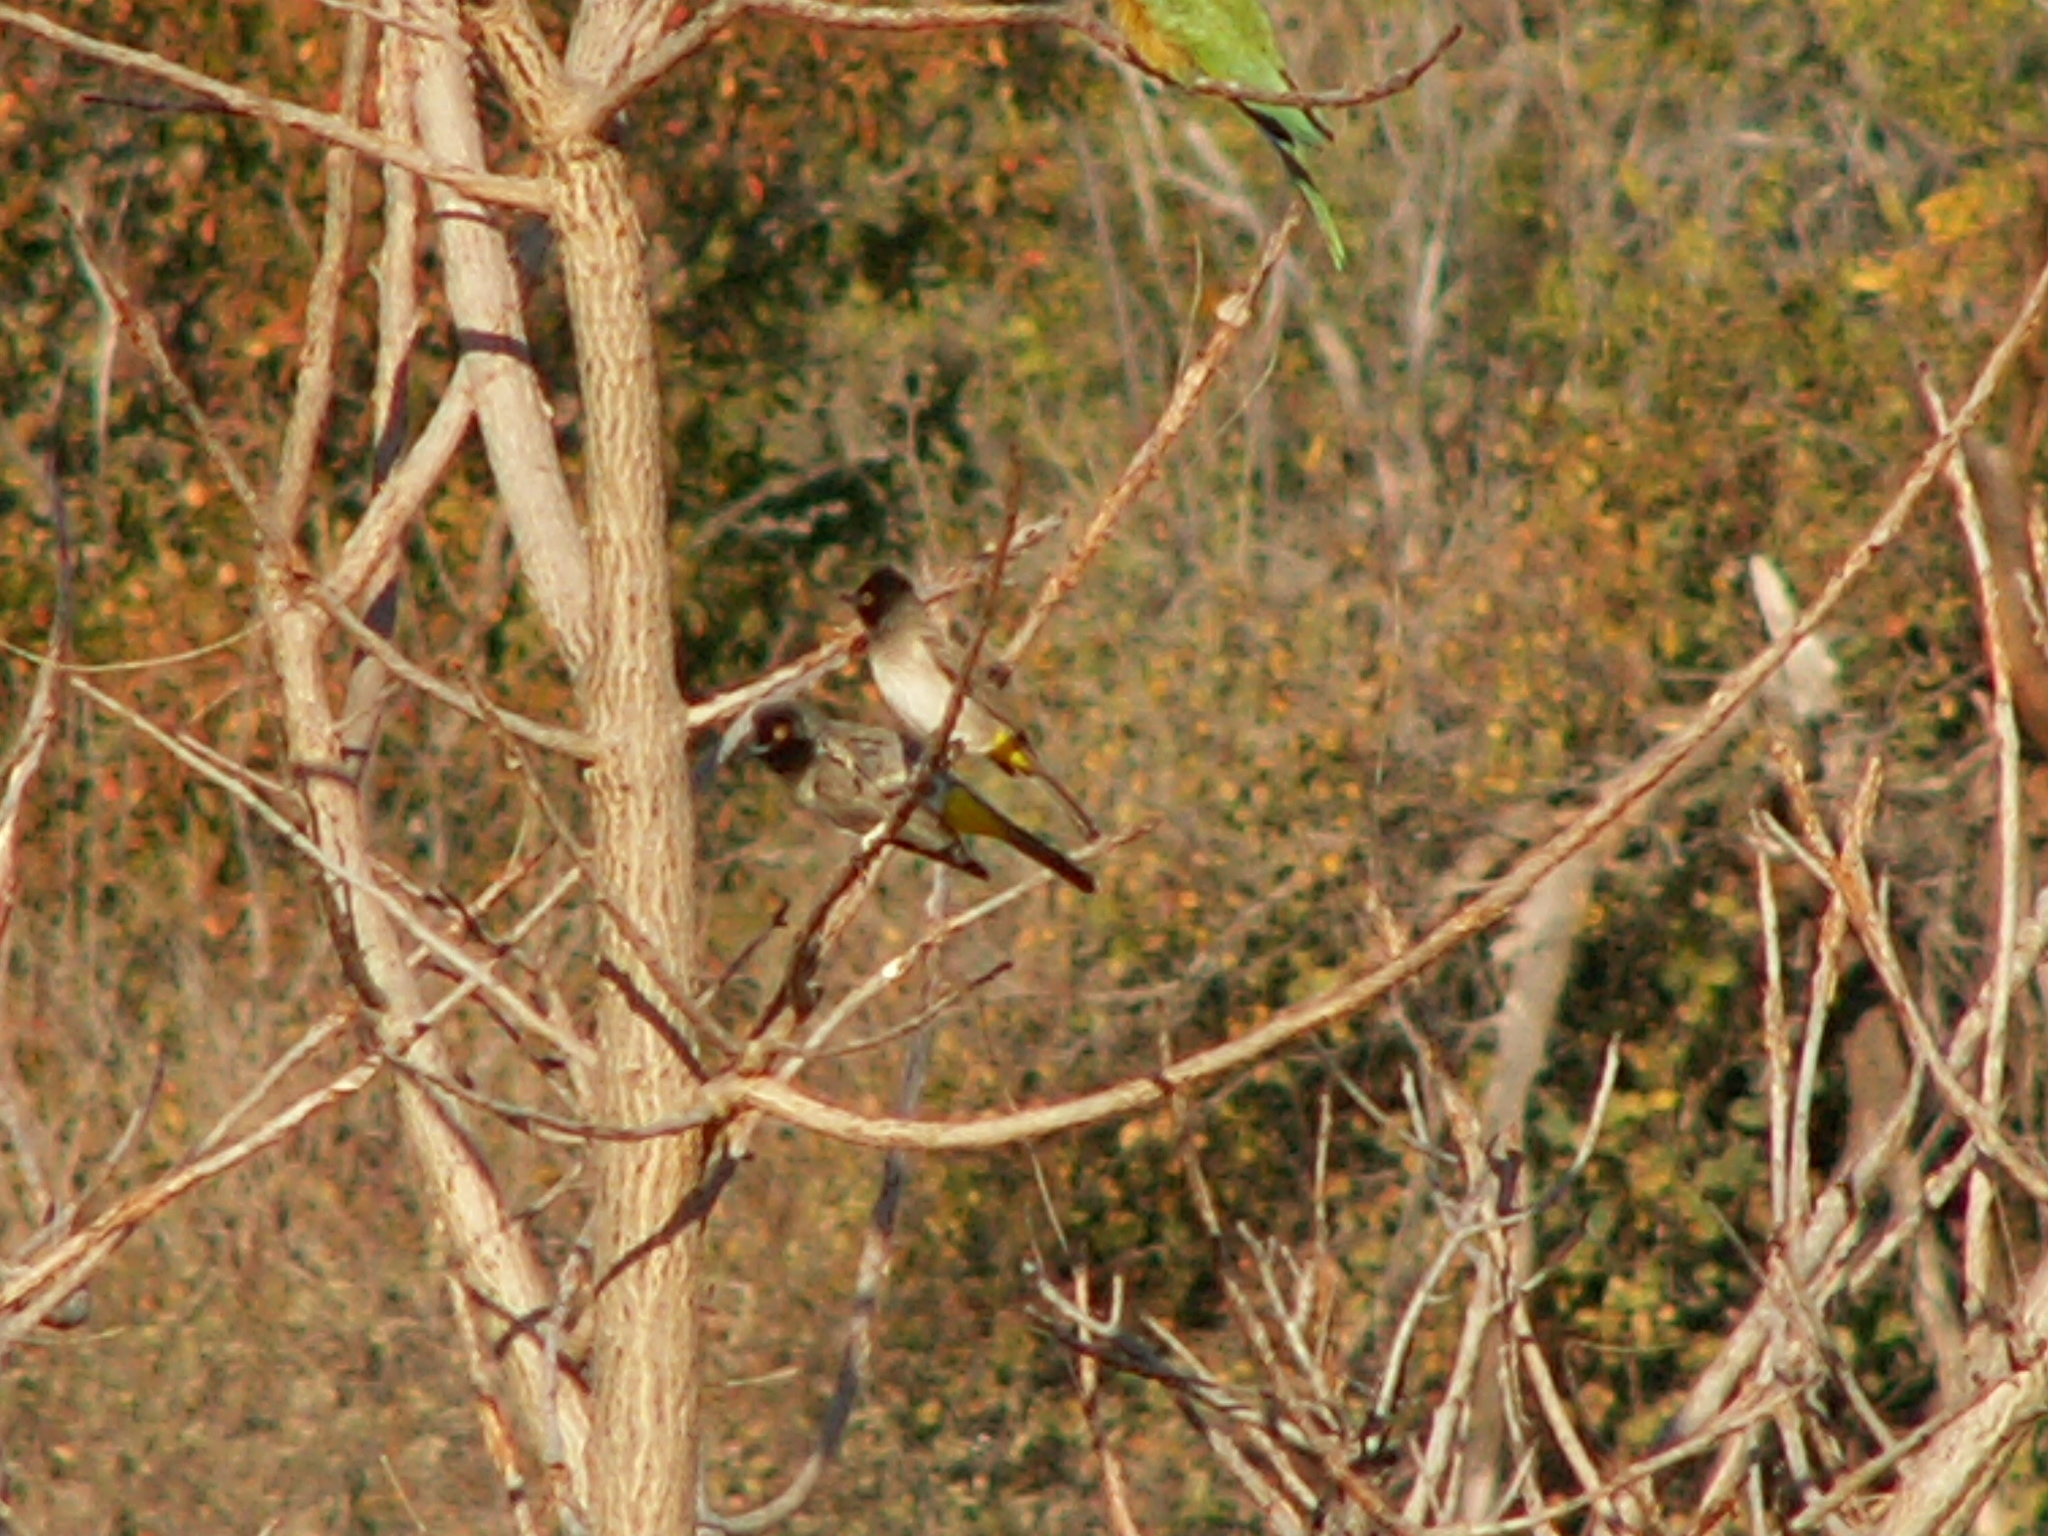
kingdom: Animalia
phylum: Chordata
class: Aves
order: Passeriformes
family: Pycnonotidae
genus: Pycnonotus
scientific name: Pycnonotus nigricans
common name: African red-eyed bulbul
